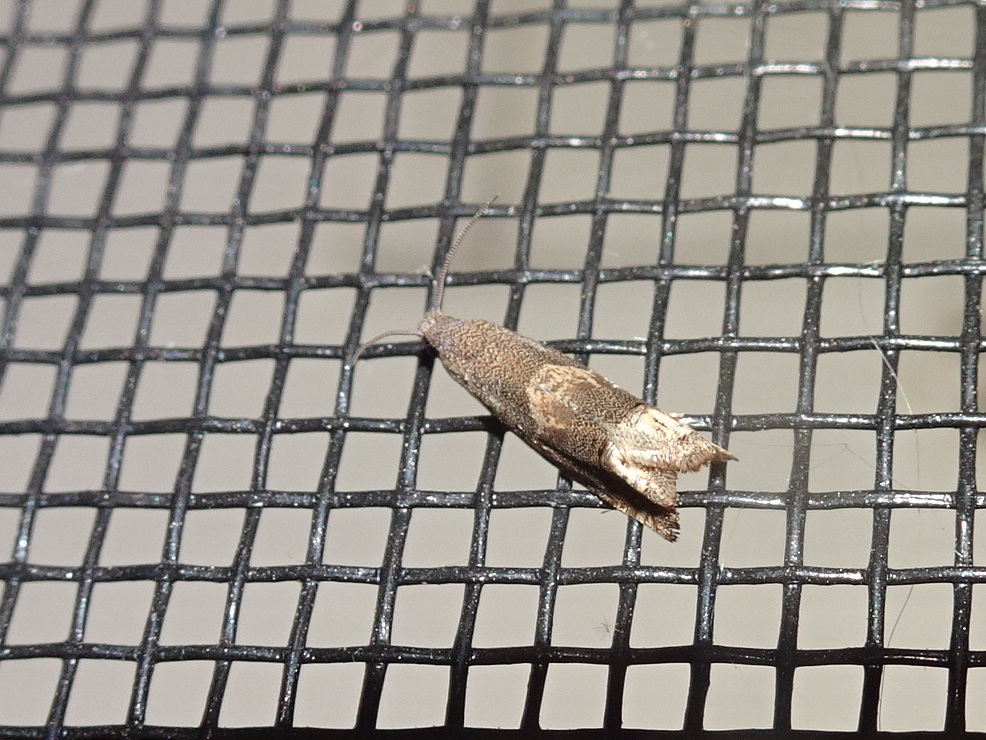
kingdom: Animalia
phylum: Arthropoda
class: Insecta
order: Lepidoptera
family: Tortricidae
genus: Epiblema
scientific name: Epiblema strenuana
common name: Ragweed borer moth
